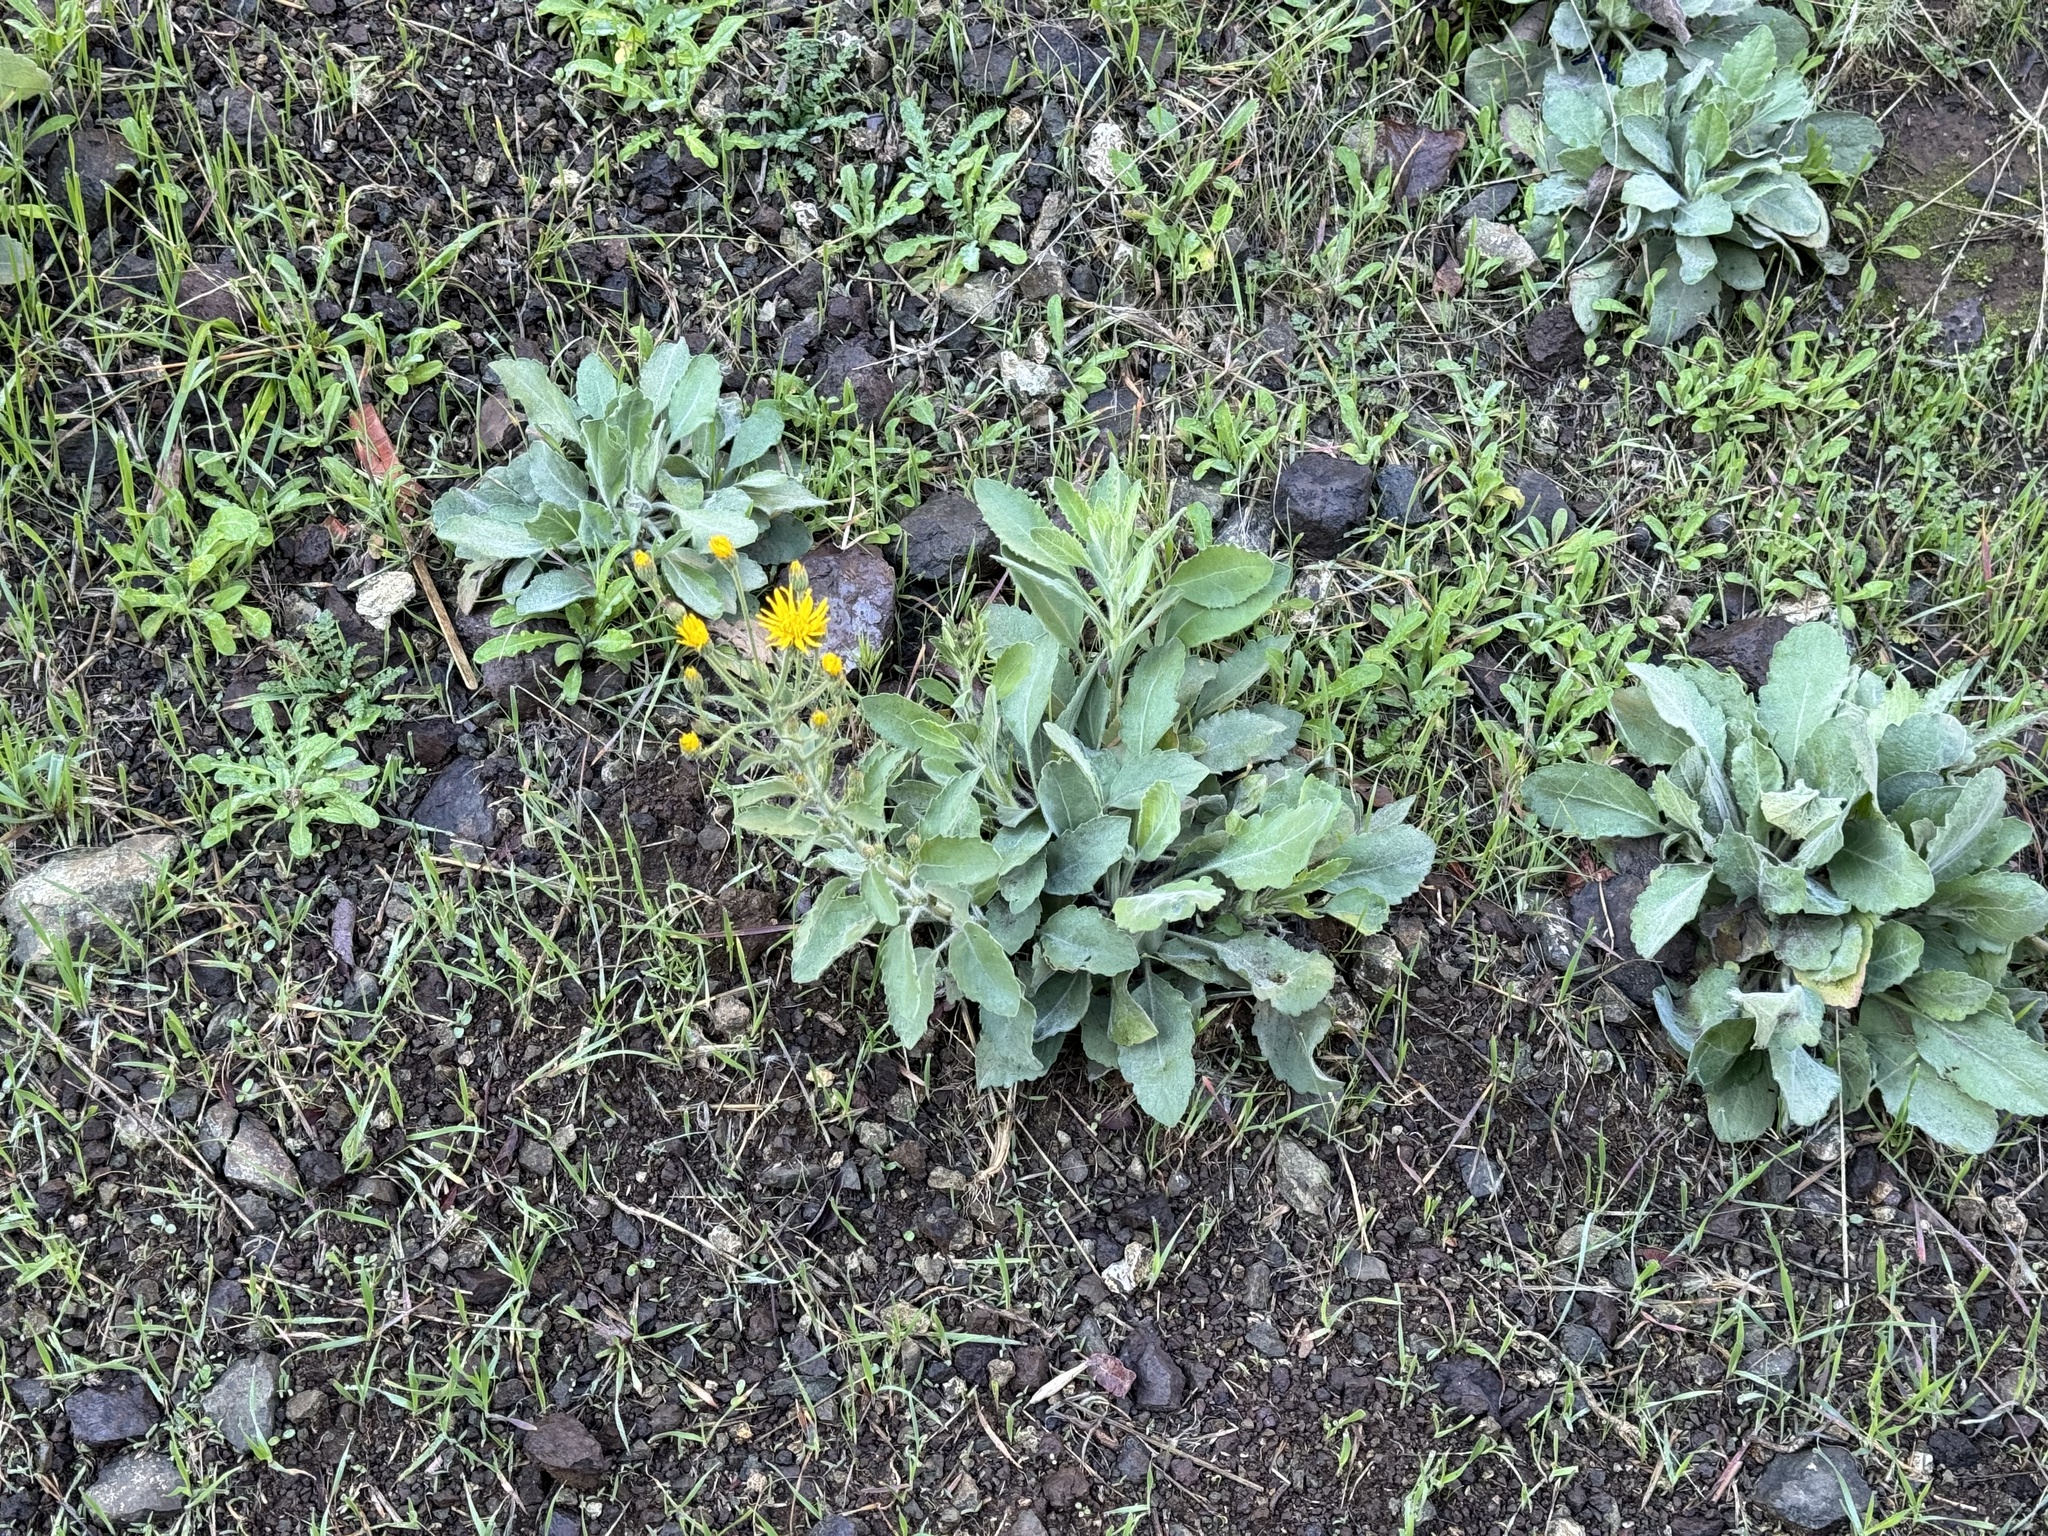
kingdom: Plantae
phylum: Tracheophyta
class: Magnoliopsida
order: Asterales
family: Asteraceae
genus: Heterotheca
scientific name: Heterotheca grandiflora
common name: Telegraphweed
